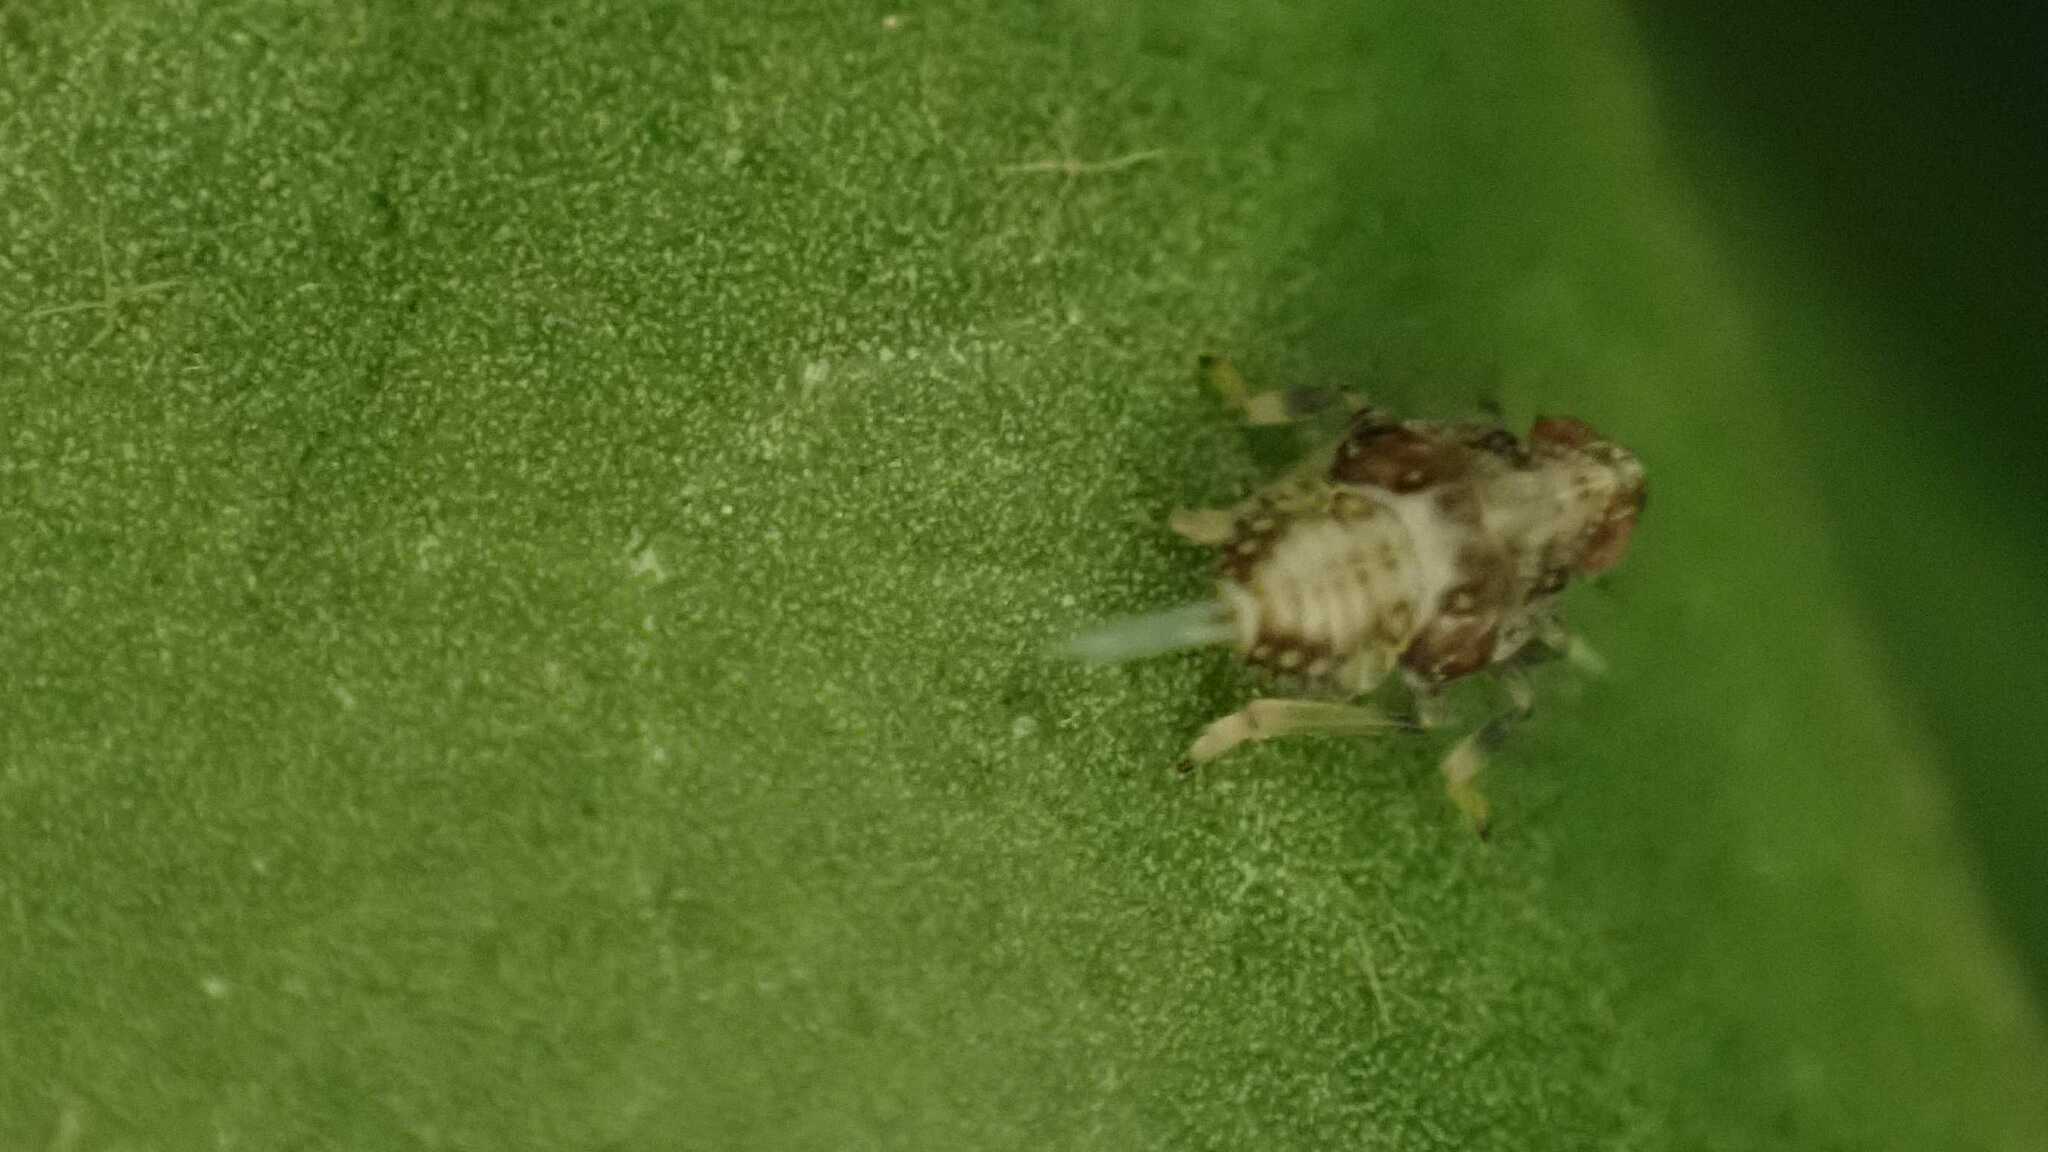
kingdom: Animalia
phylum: Arthropoda
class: Insecta
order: Hemiptera
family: Issidae
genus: Issus
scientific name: Issus
